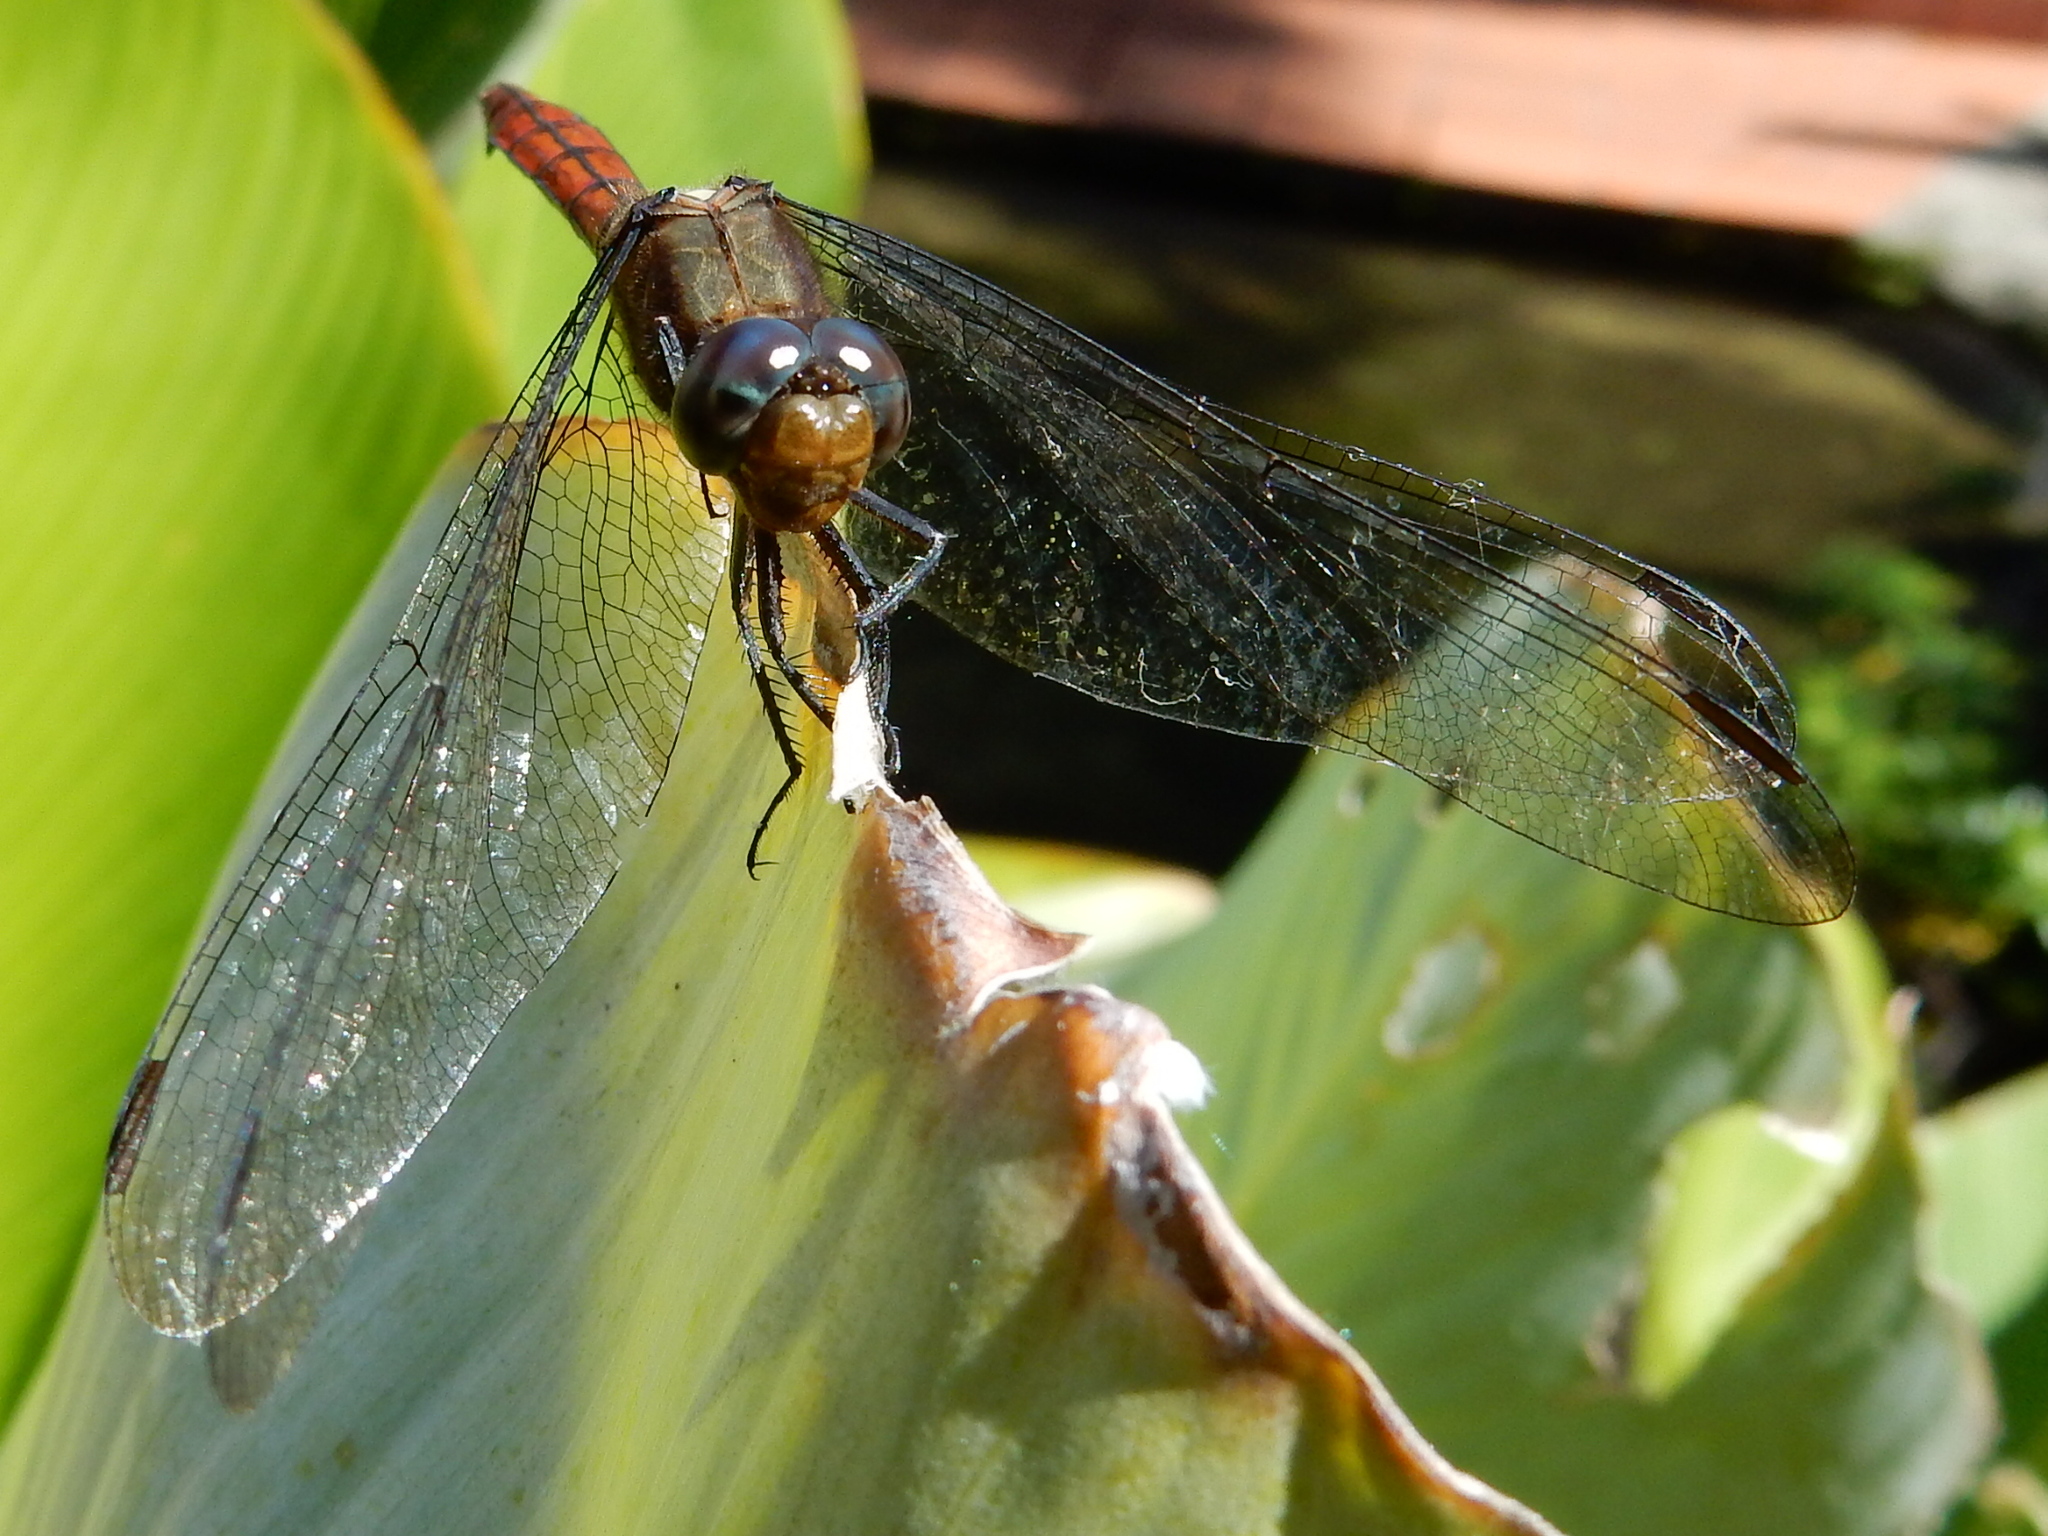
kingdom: Animalia
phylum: Arthropoda
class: Insecta
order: Odonata
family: Libellulidae
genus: Orthetrum
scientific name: Orthetrum villosovittatum
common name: Firery skimmer
